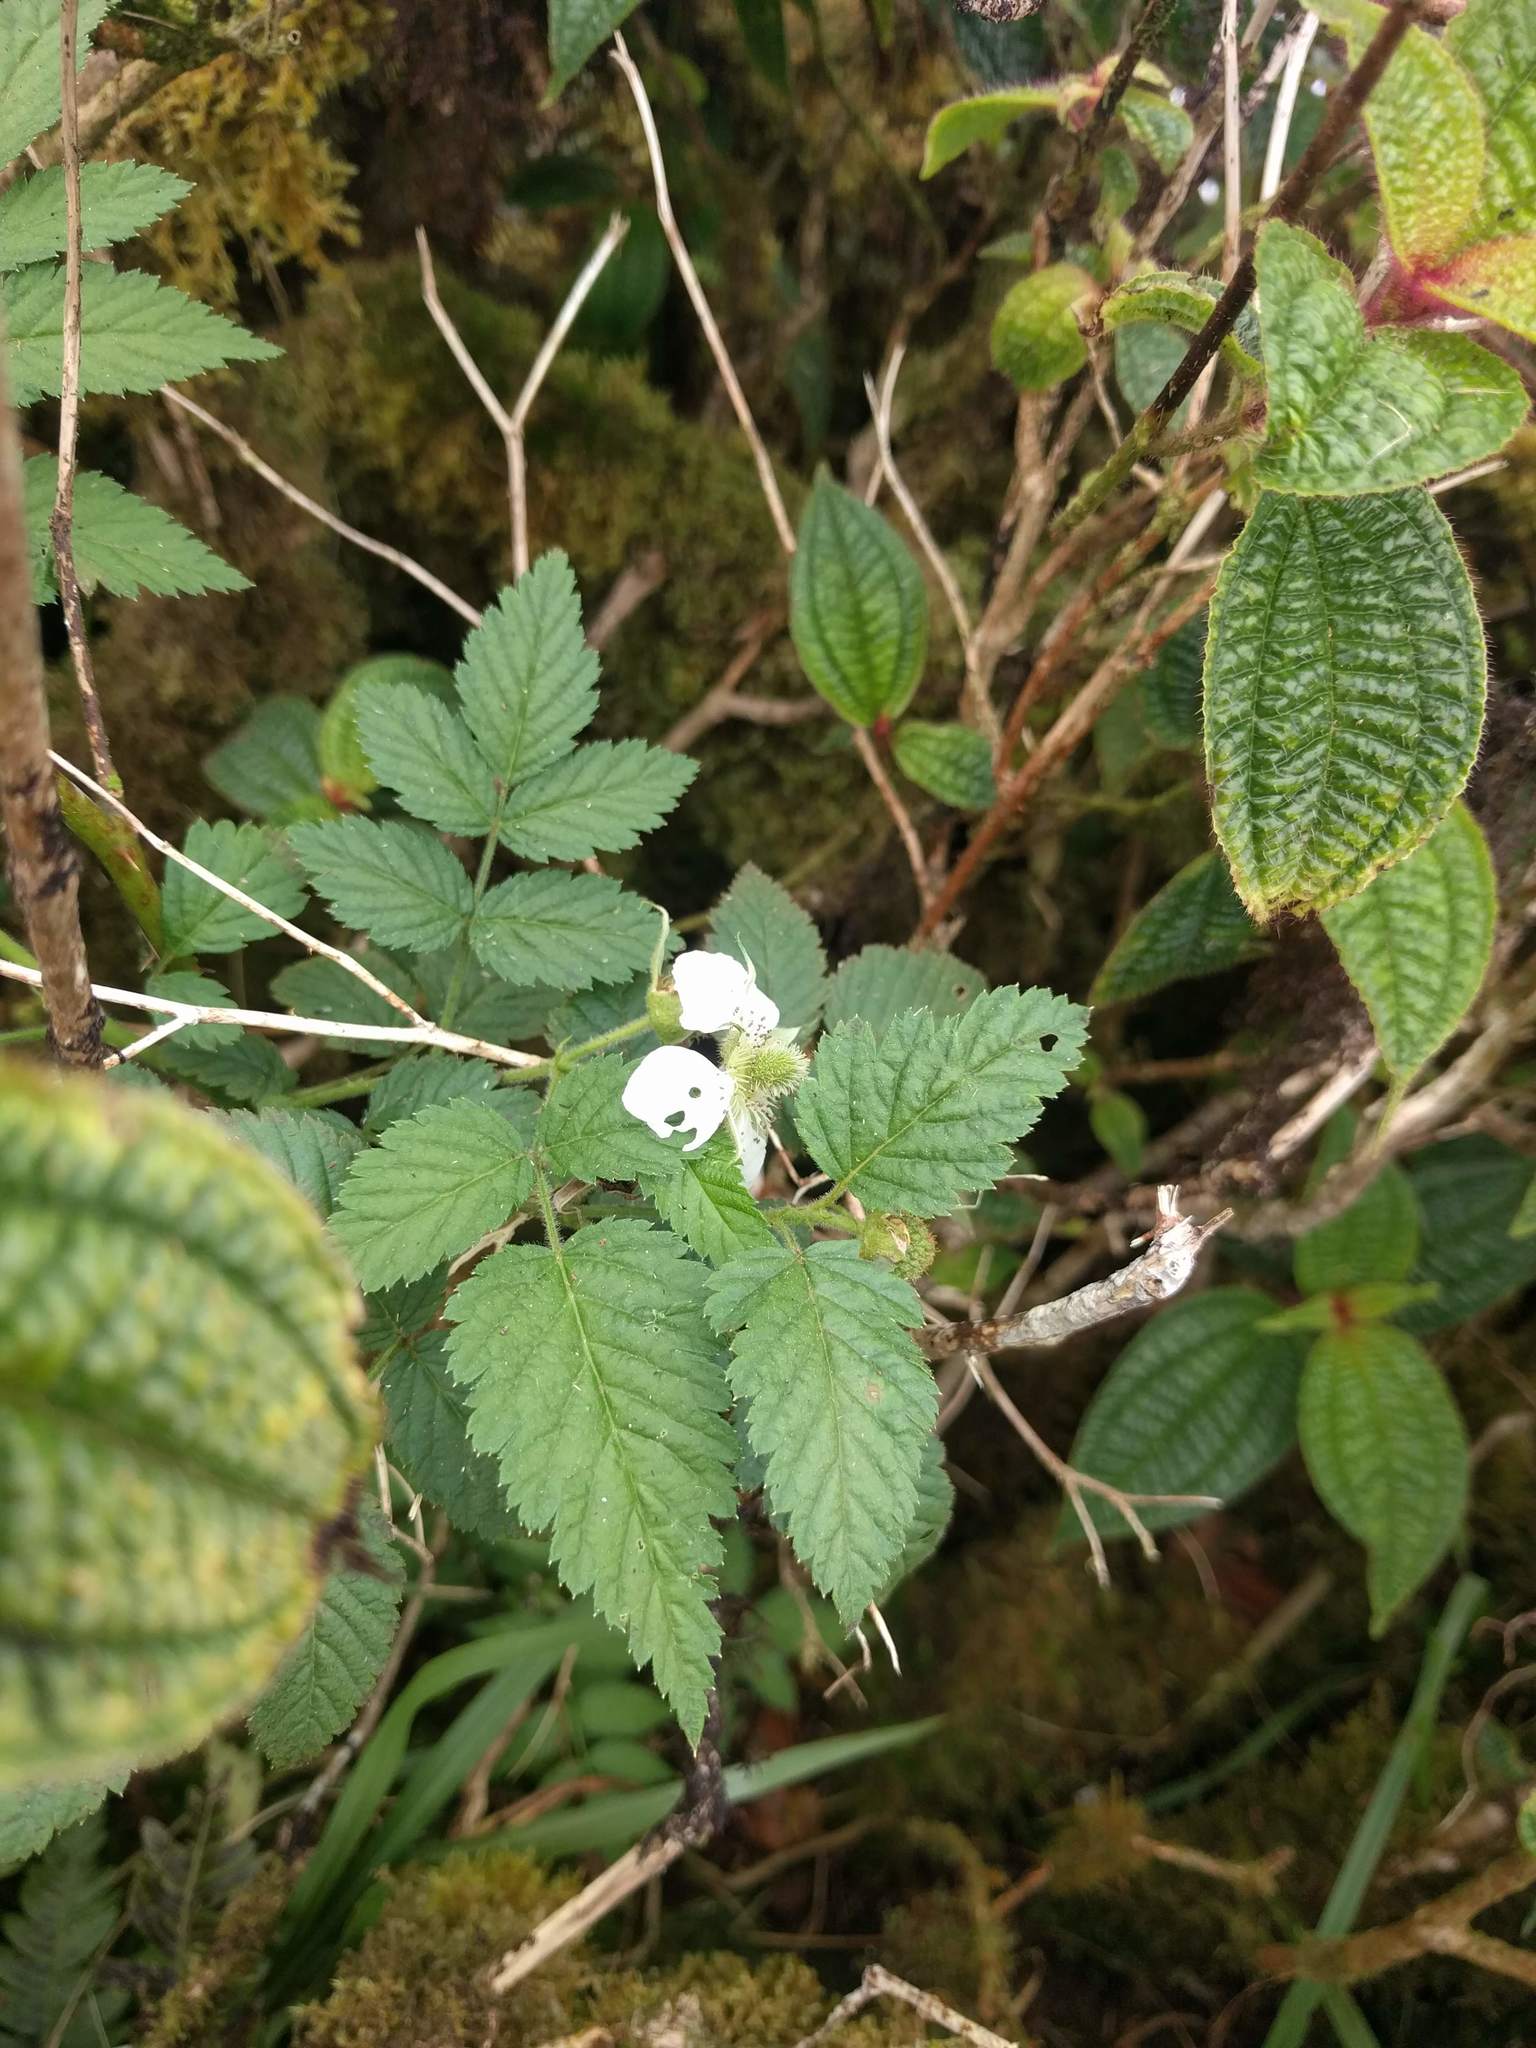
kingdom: Plantae
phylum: Tracheophyta
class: Magnoliopsida
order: Rosales
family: Rosaceae
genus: Rubus
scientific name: Rubus rosifolius
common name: Roseleaf raspberry
